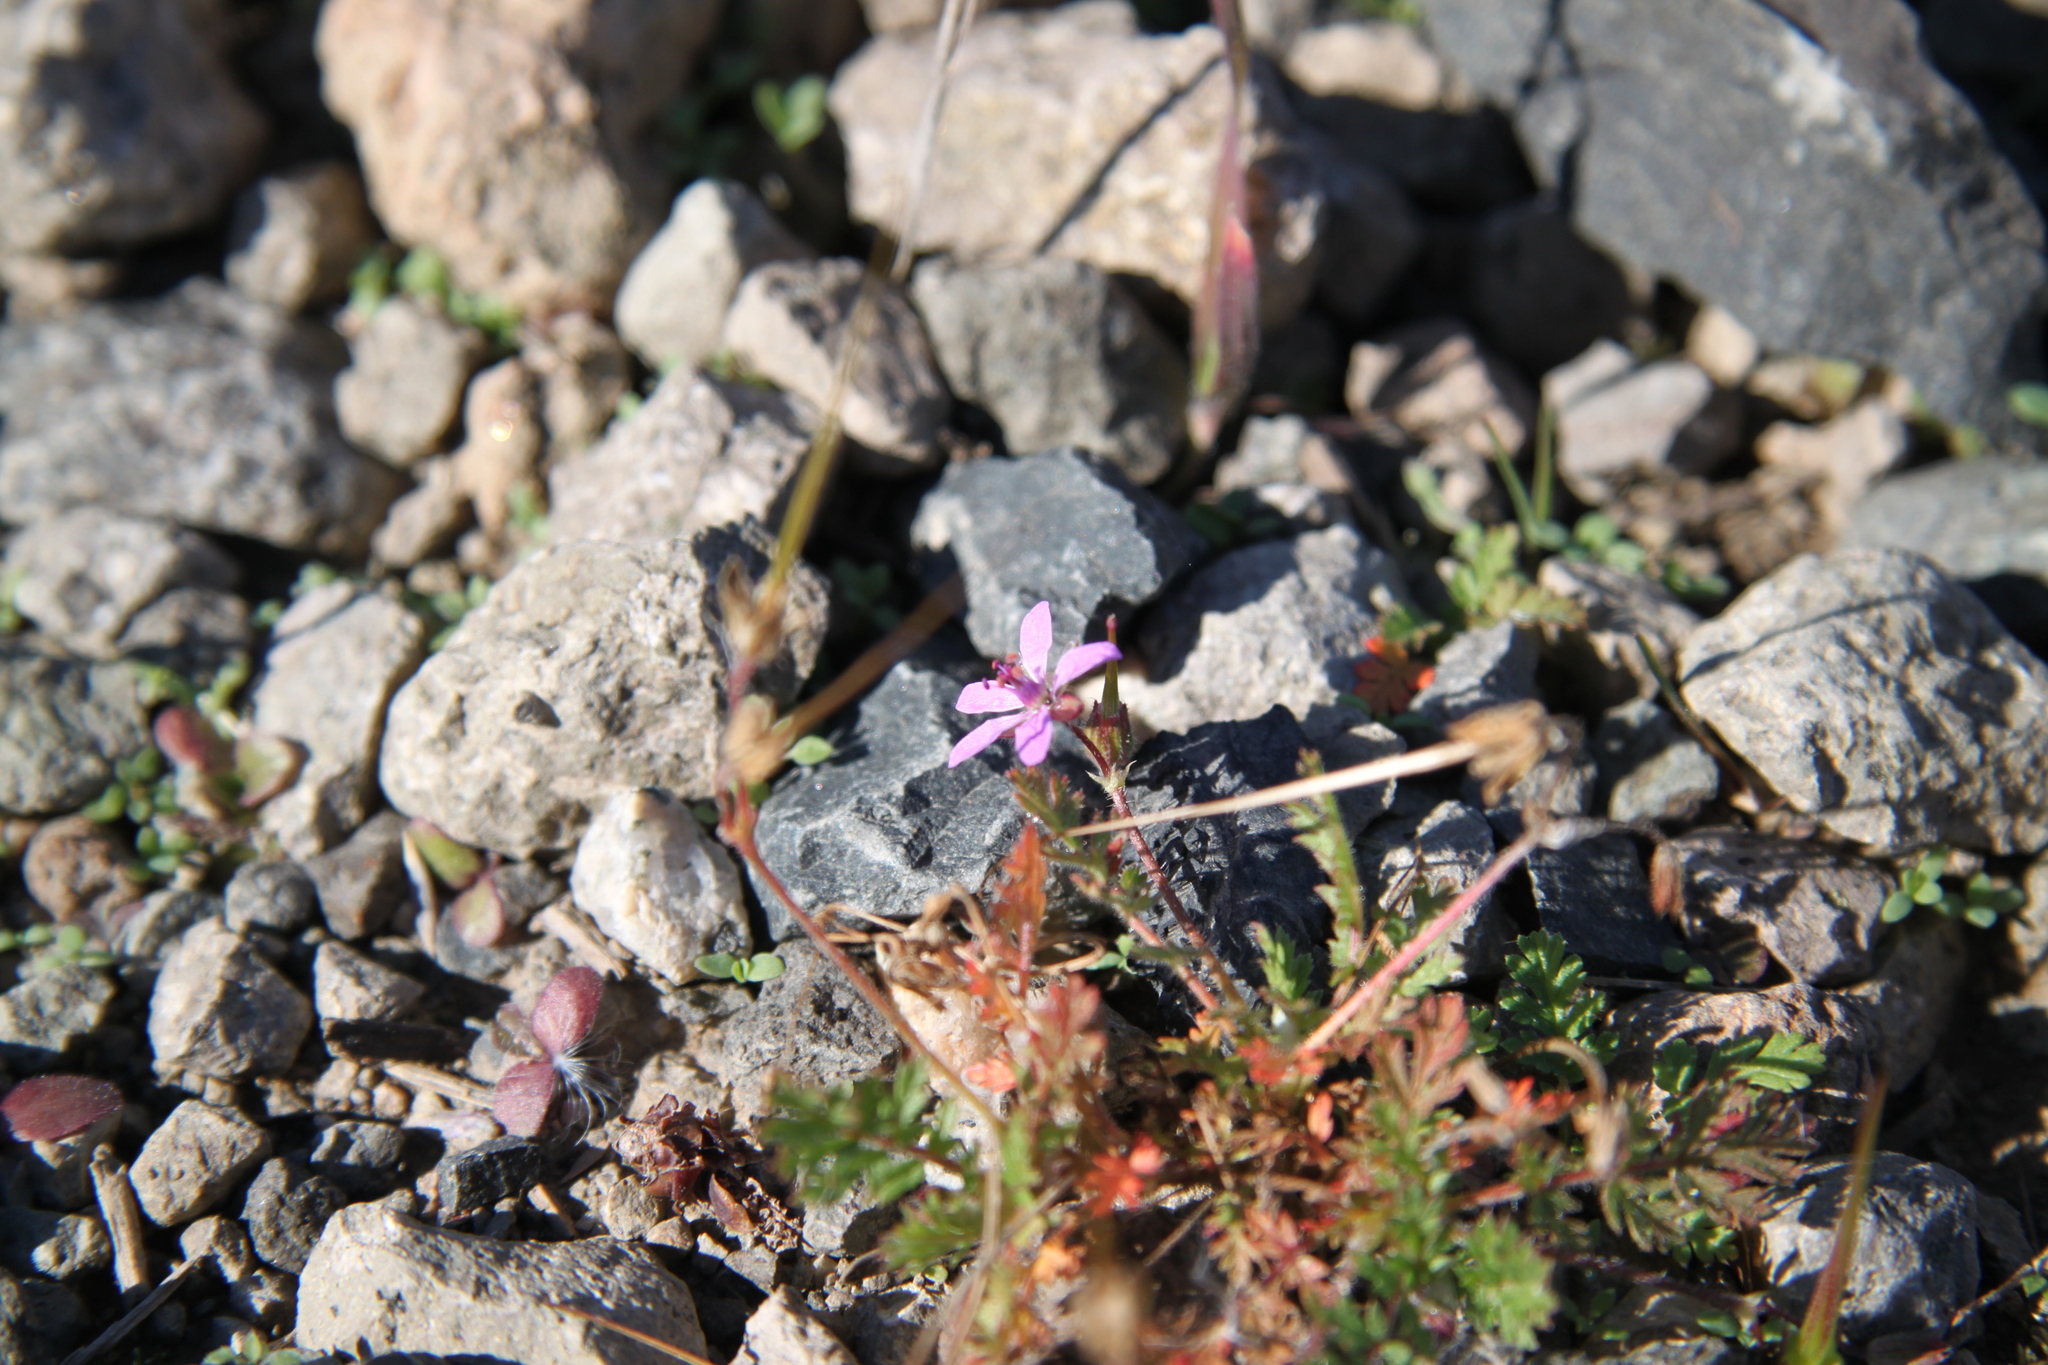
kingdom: Plantae
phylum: Tracheophyta
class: Magnoliopsida
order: Geraniales
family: Geraniaceae
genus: Erodium
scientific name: Erodium cicutarium
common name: Common stork's-bill
